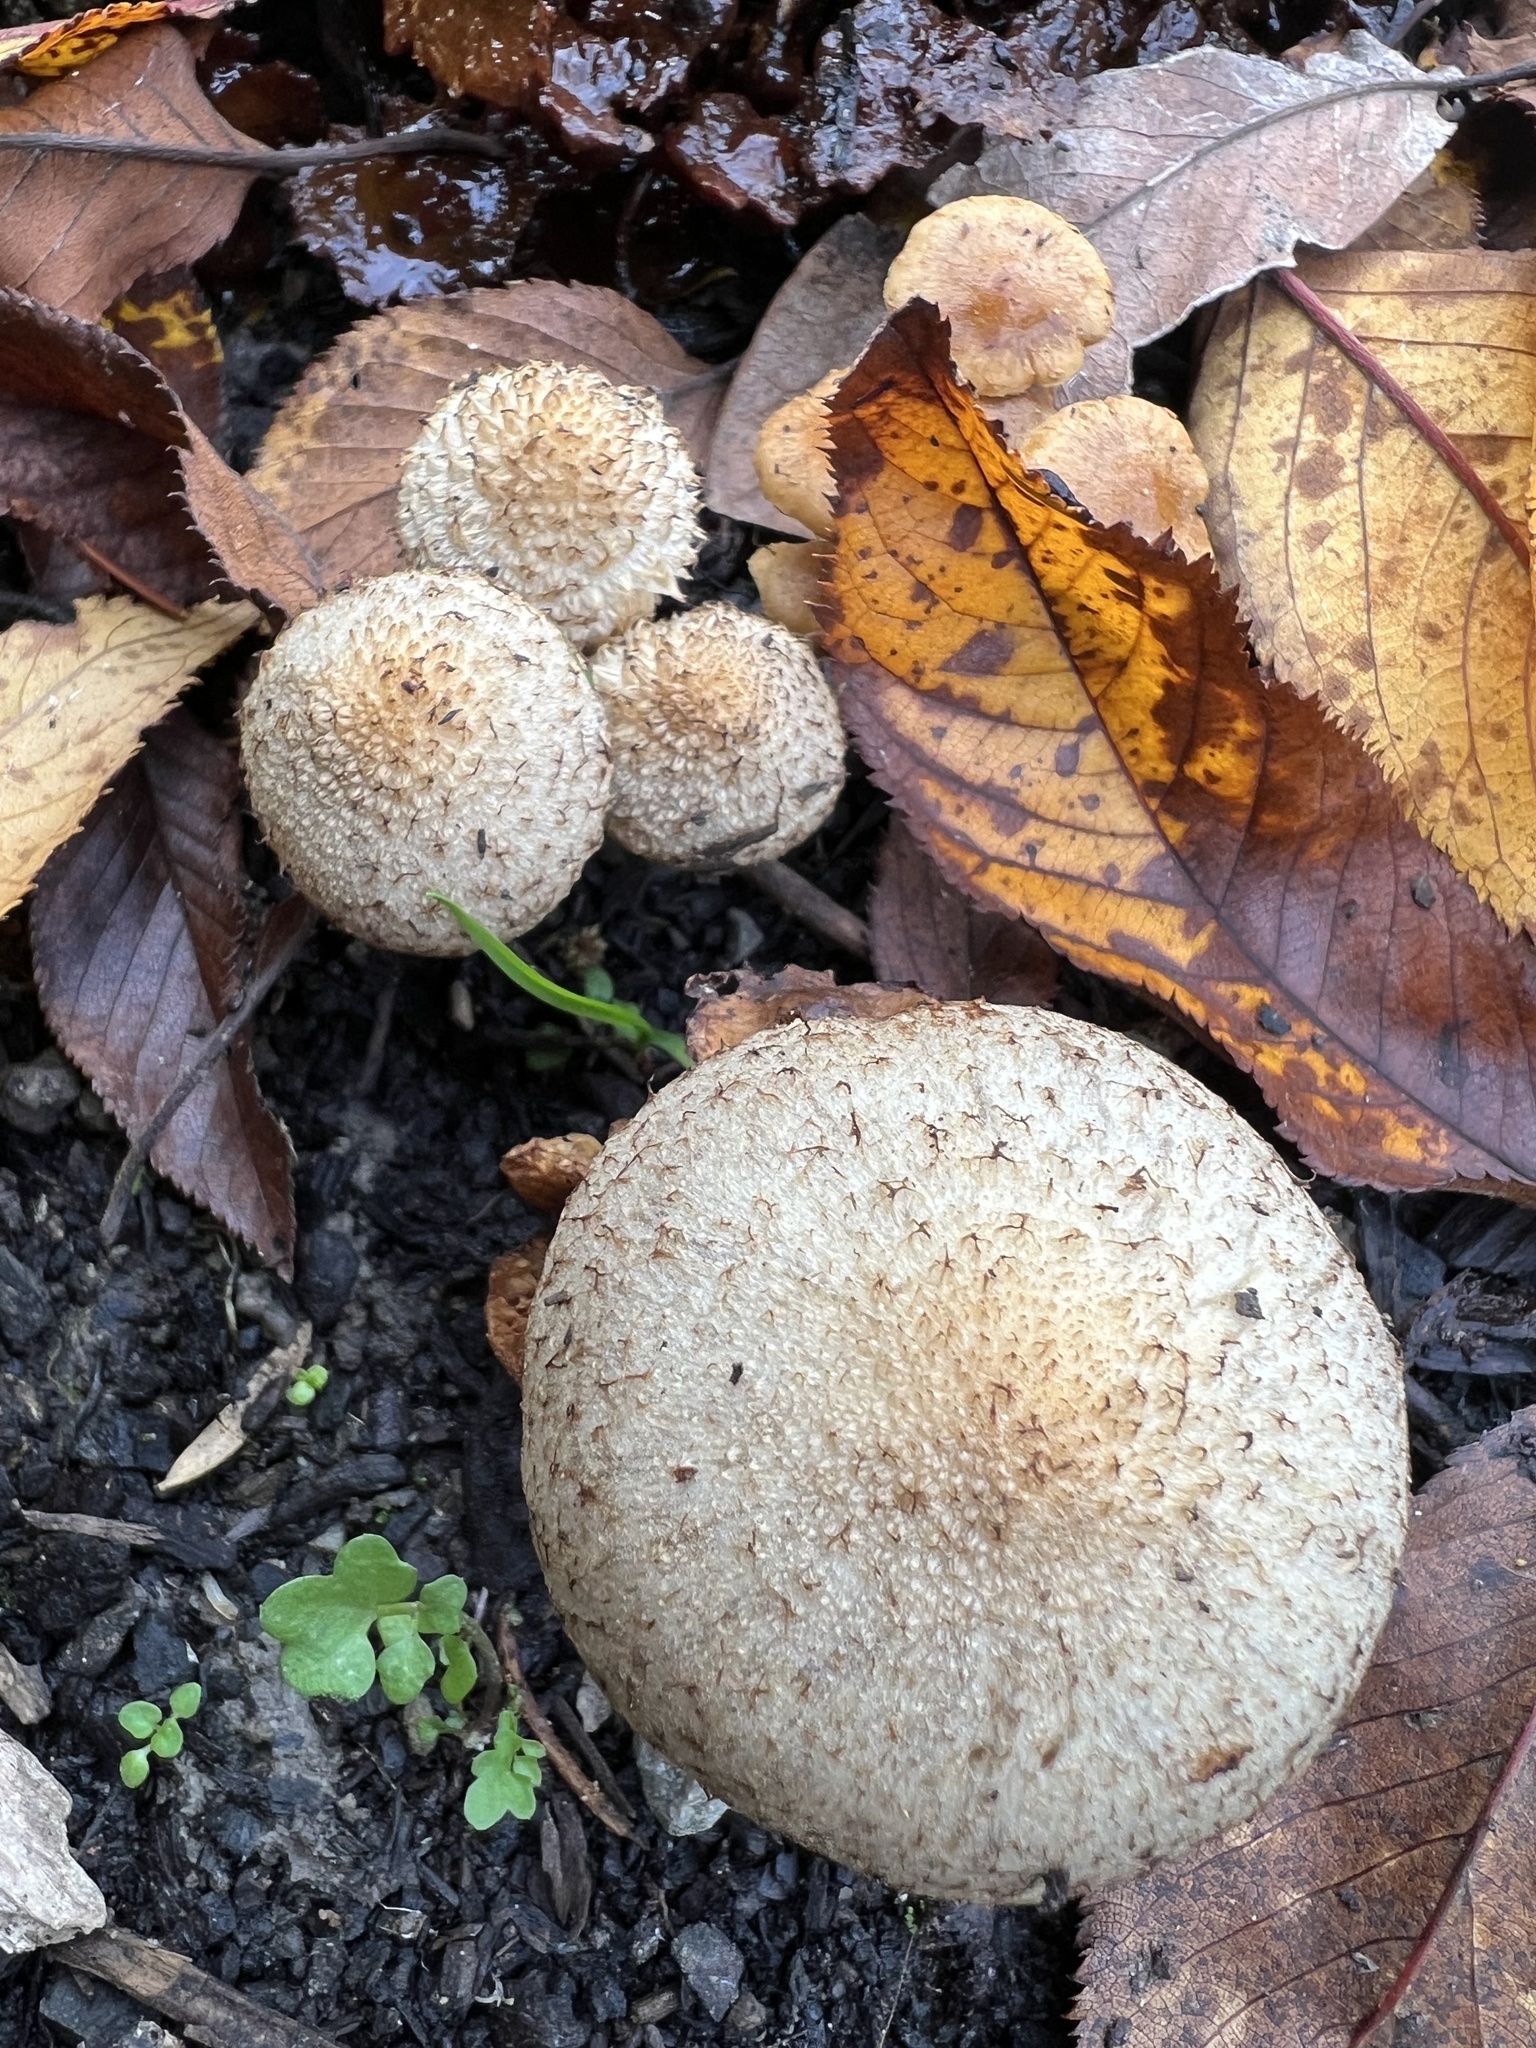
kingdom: Fungi
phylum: Basidiomycota
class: Agaricomycetes
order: Agaricales
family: Psathyrellaceae
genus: Lacrymaria
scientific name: Lacrymaria lacrymabunda
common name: Weeping widow
